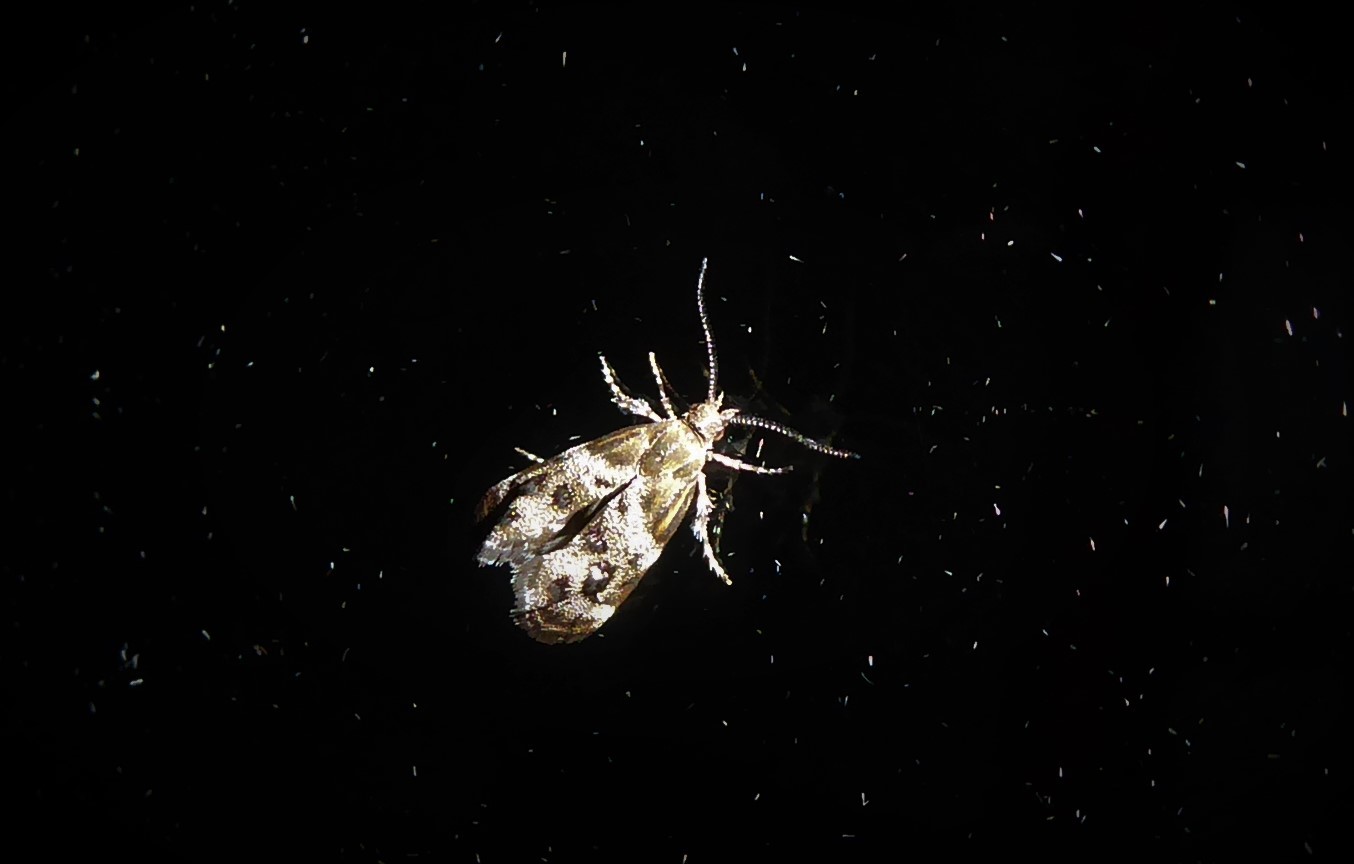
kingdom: Animalia
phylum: Arthropoda
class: Insecta
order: Lepidoptera
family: Choreutidae
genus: Tebenna
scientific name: Tebenna micalis
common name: Vagrant twitcher
